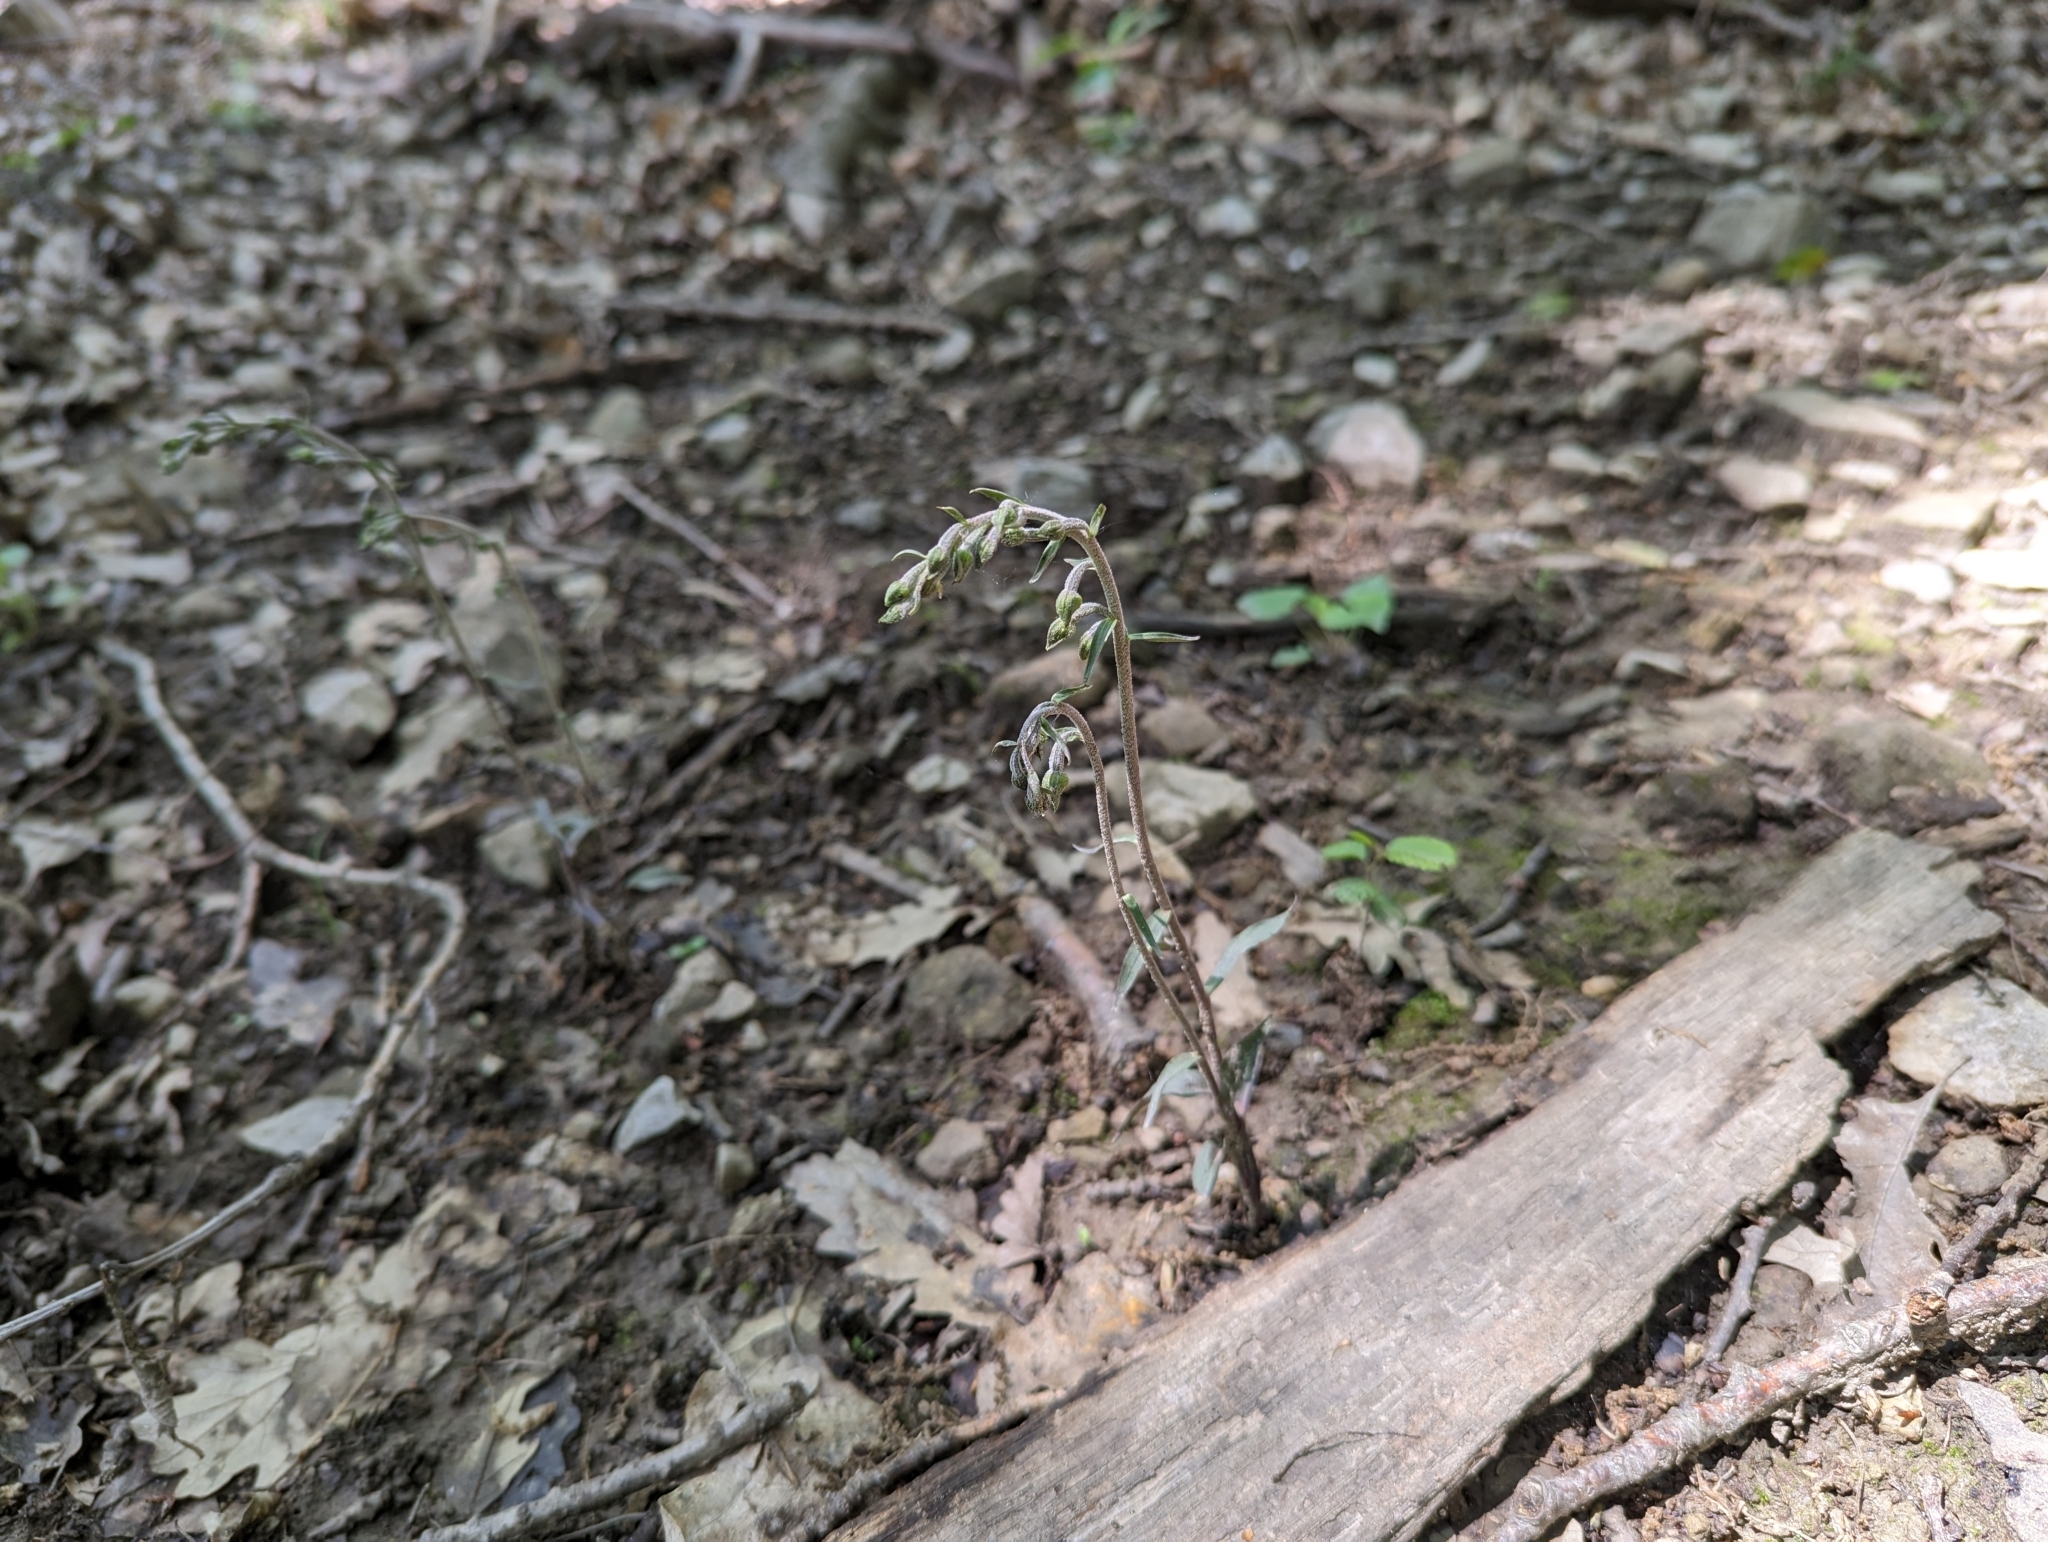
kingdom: Plantae
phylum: Tracheophyta
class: Liliopsida
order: Asparagales
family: Orchidaceae
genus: Epipactis
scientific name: Epipactis microphylla
